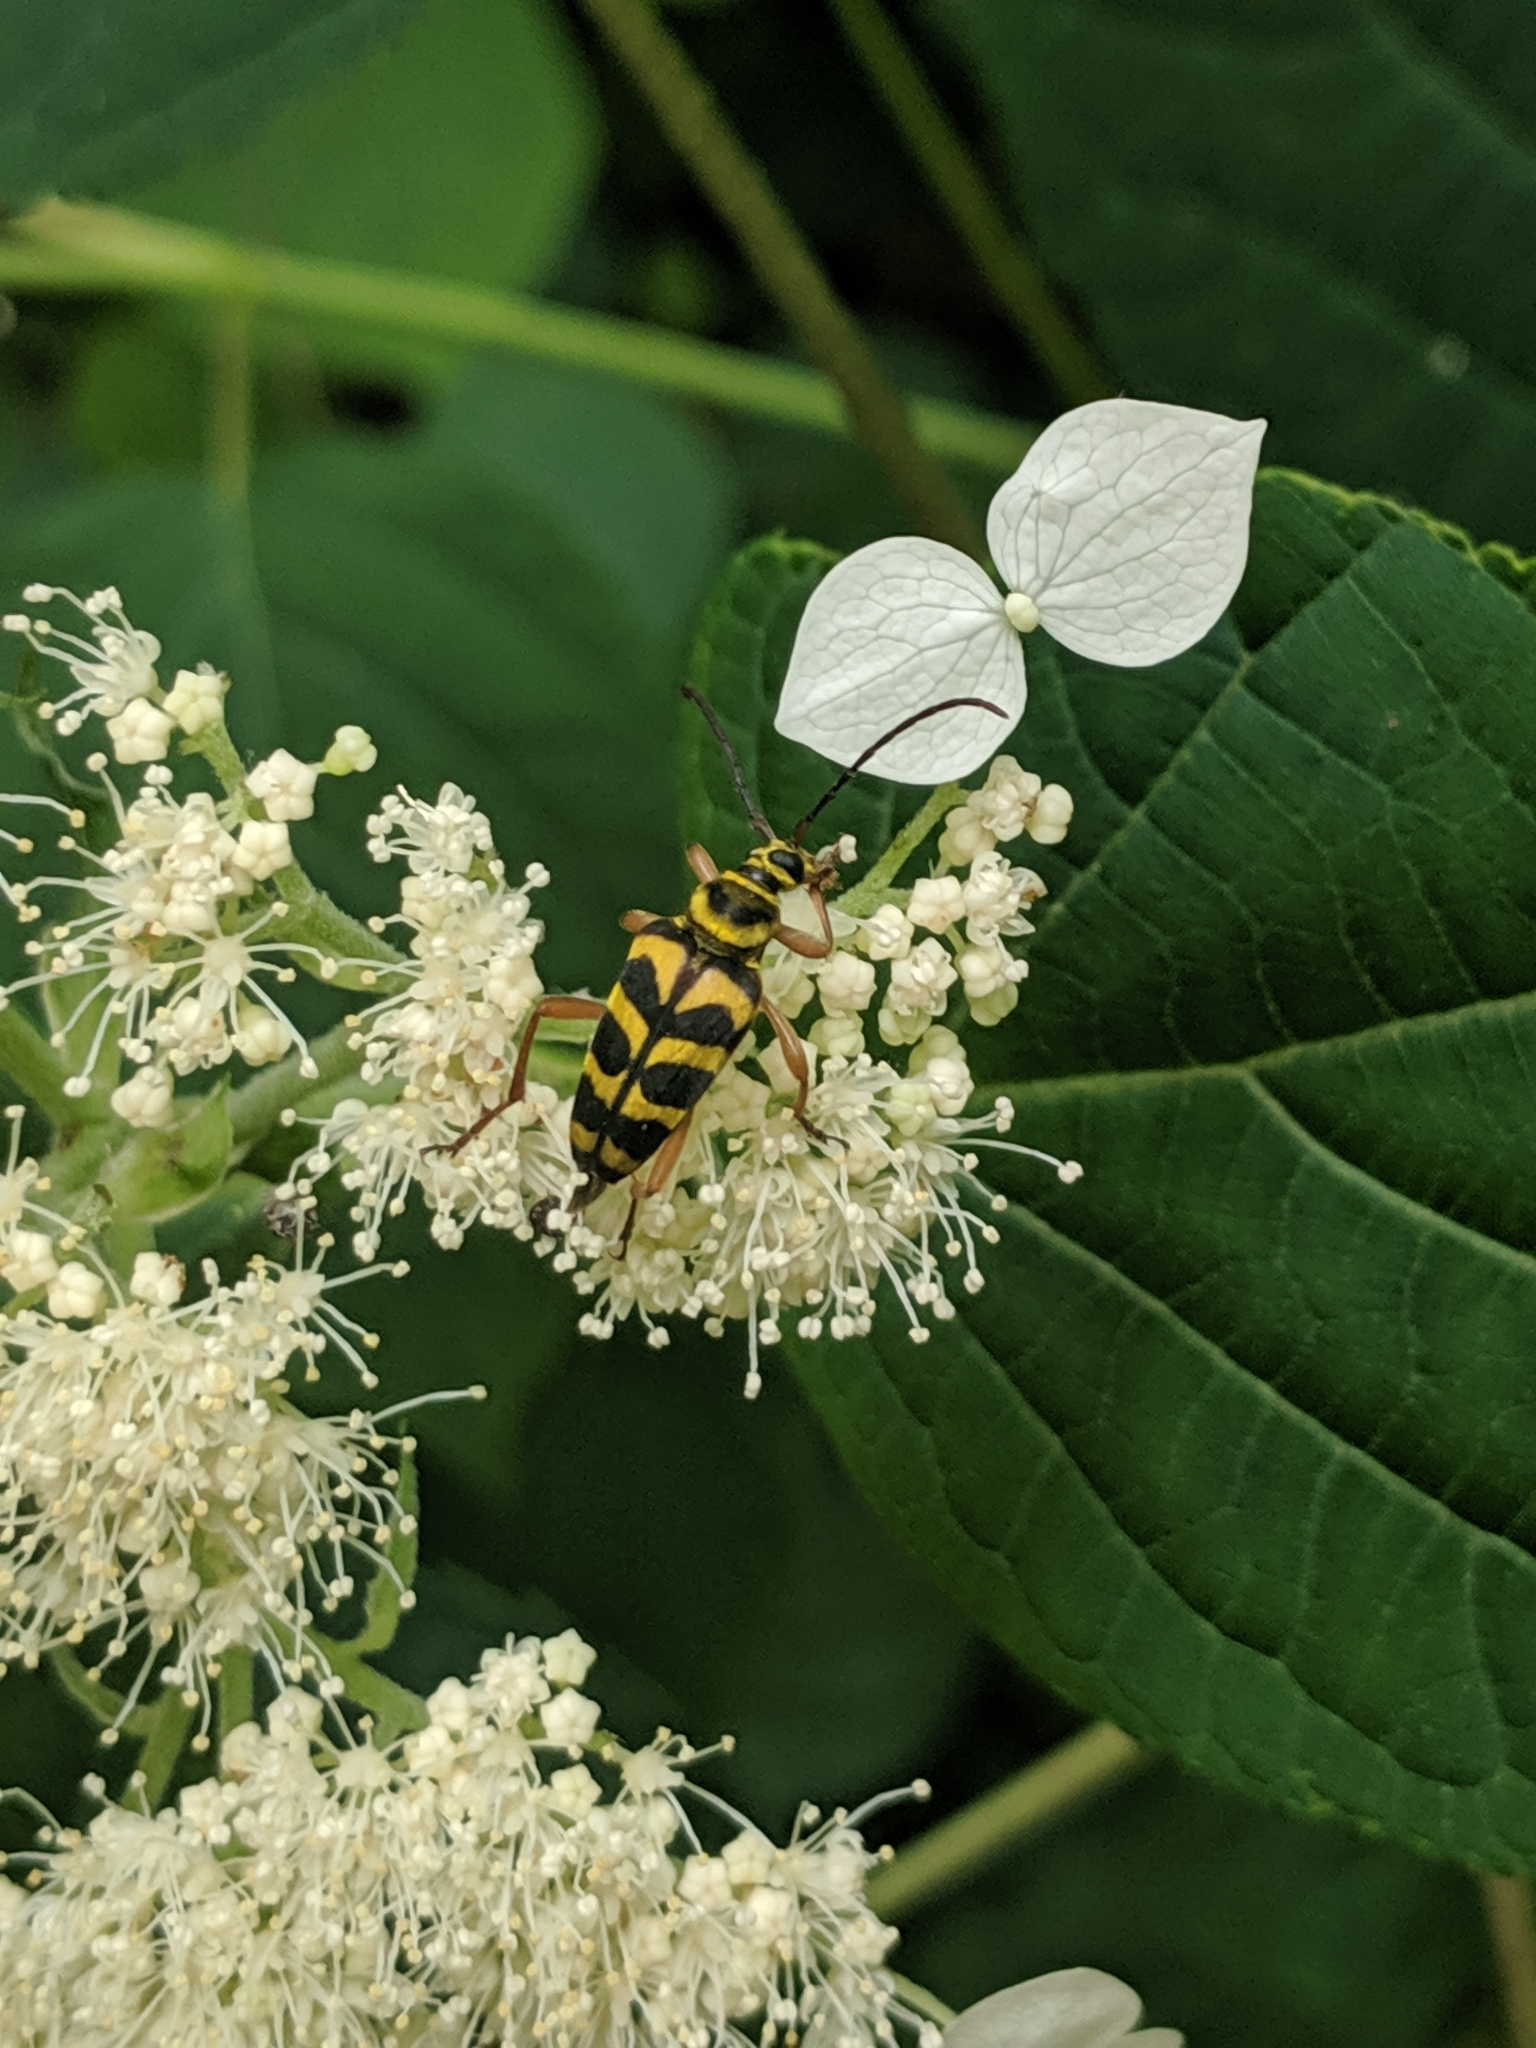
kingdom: Animalia
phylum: Arthropoda
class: Insecta
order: Coleoptera
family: Cerambycidae
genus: Strophiona
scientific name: Strophiona nitens
